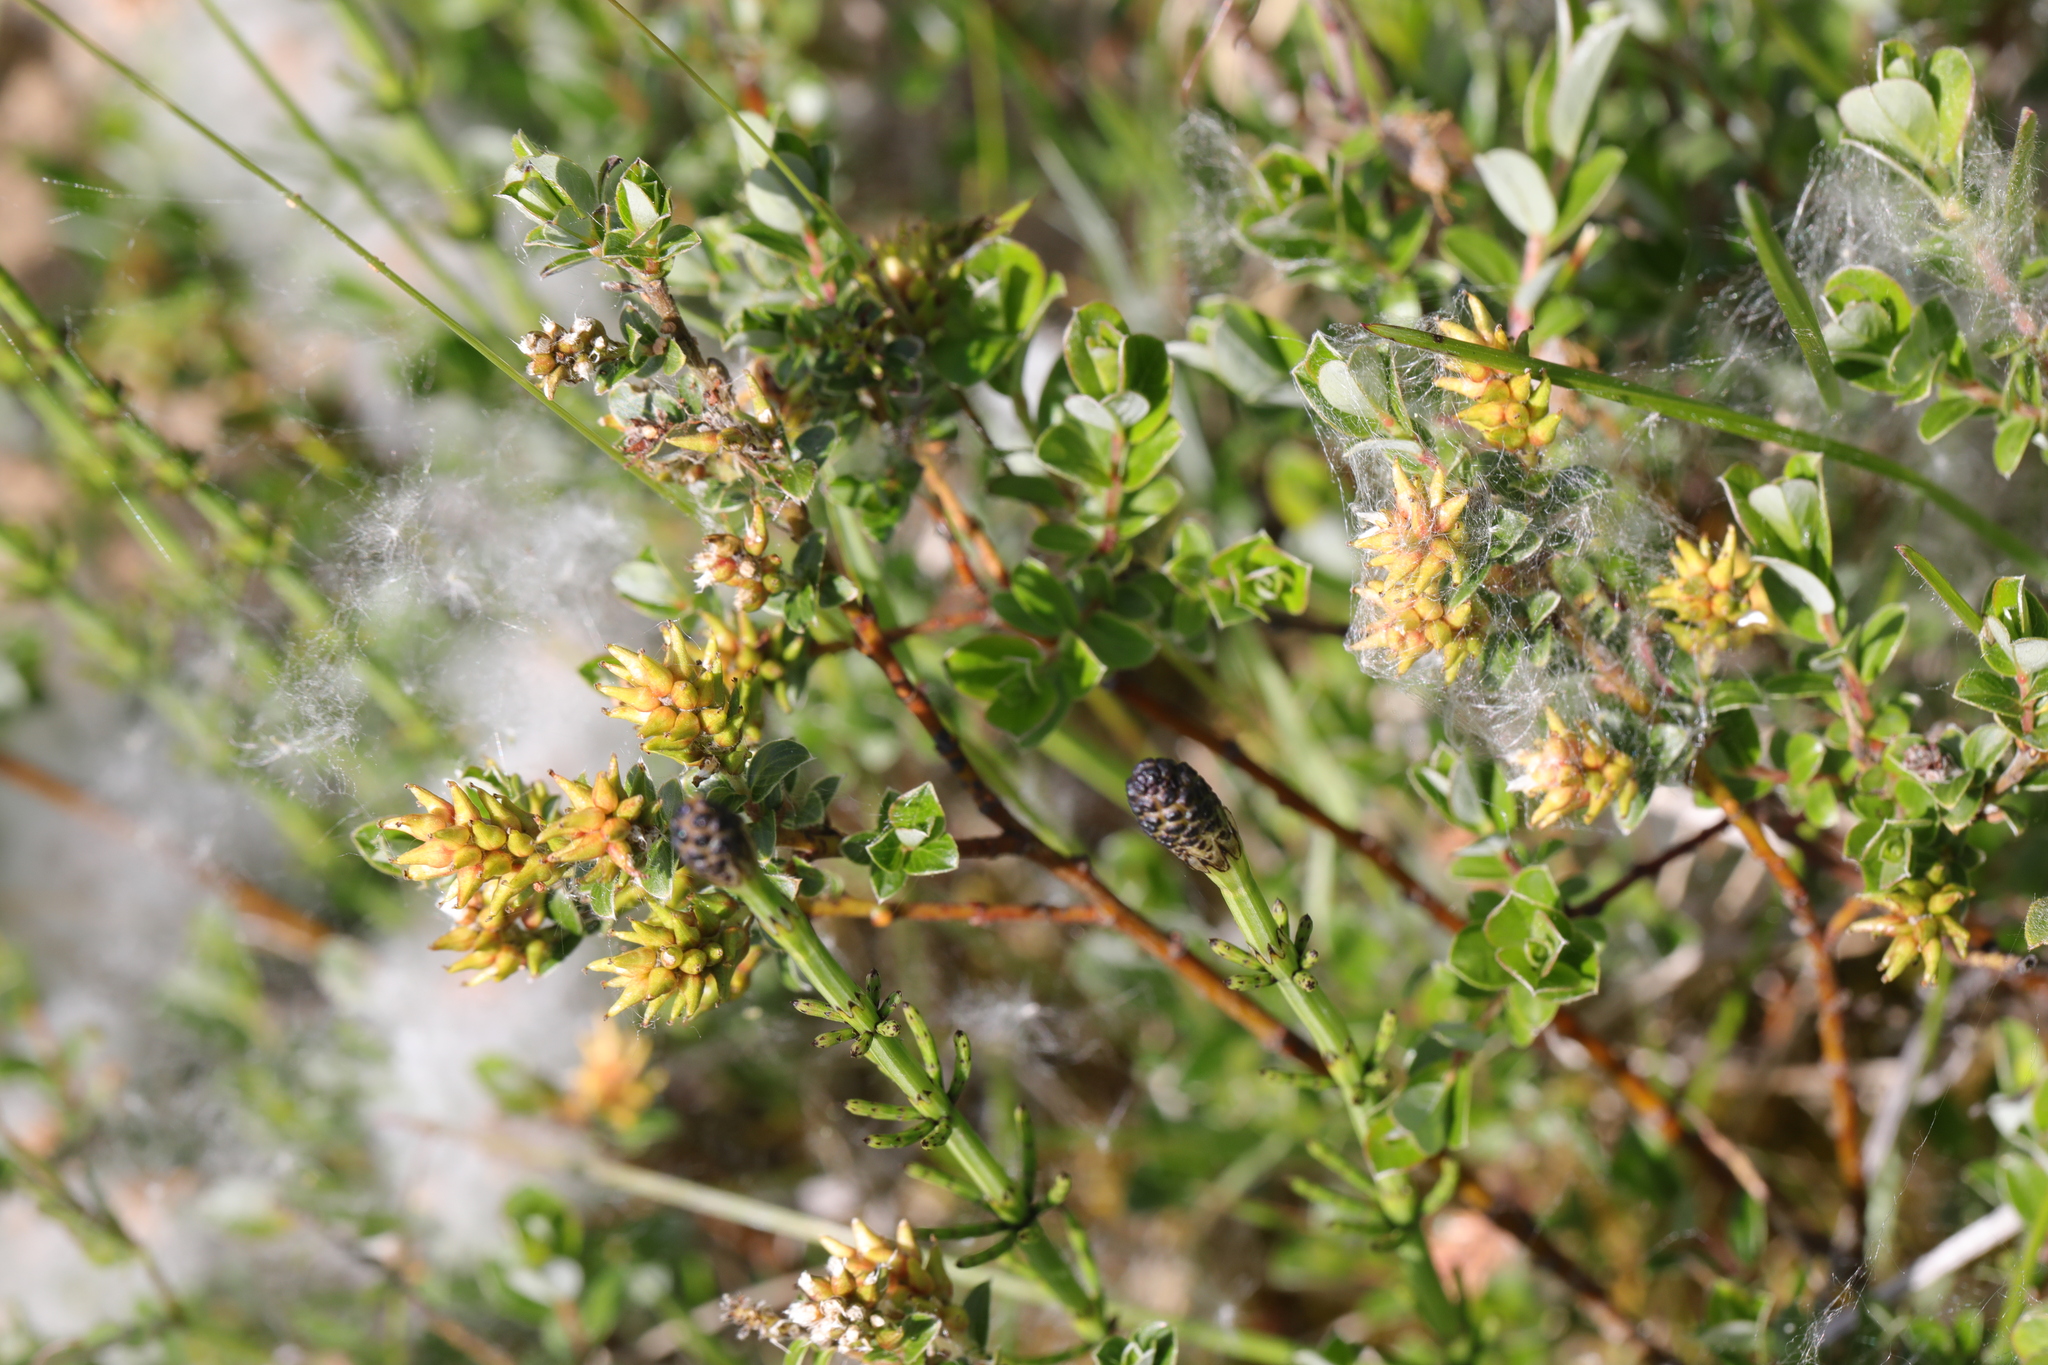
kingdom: Plantae
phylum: Tracheophyta
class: Magnoliopsida
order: Malpighiales
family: Salicaceae
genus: Salix
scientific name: Salix repens
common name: Creeping willow
